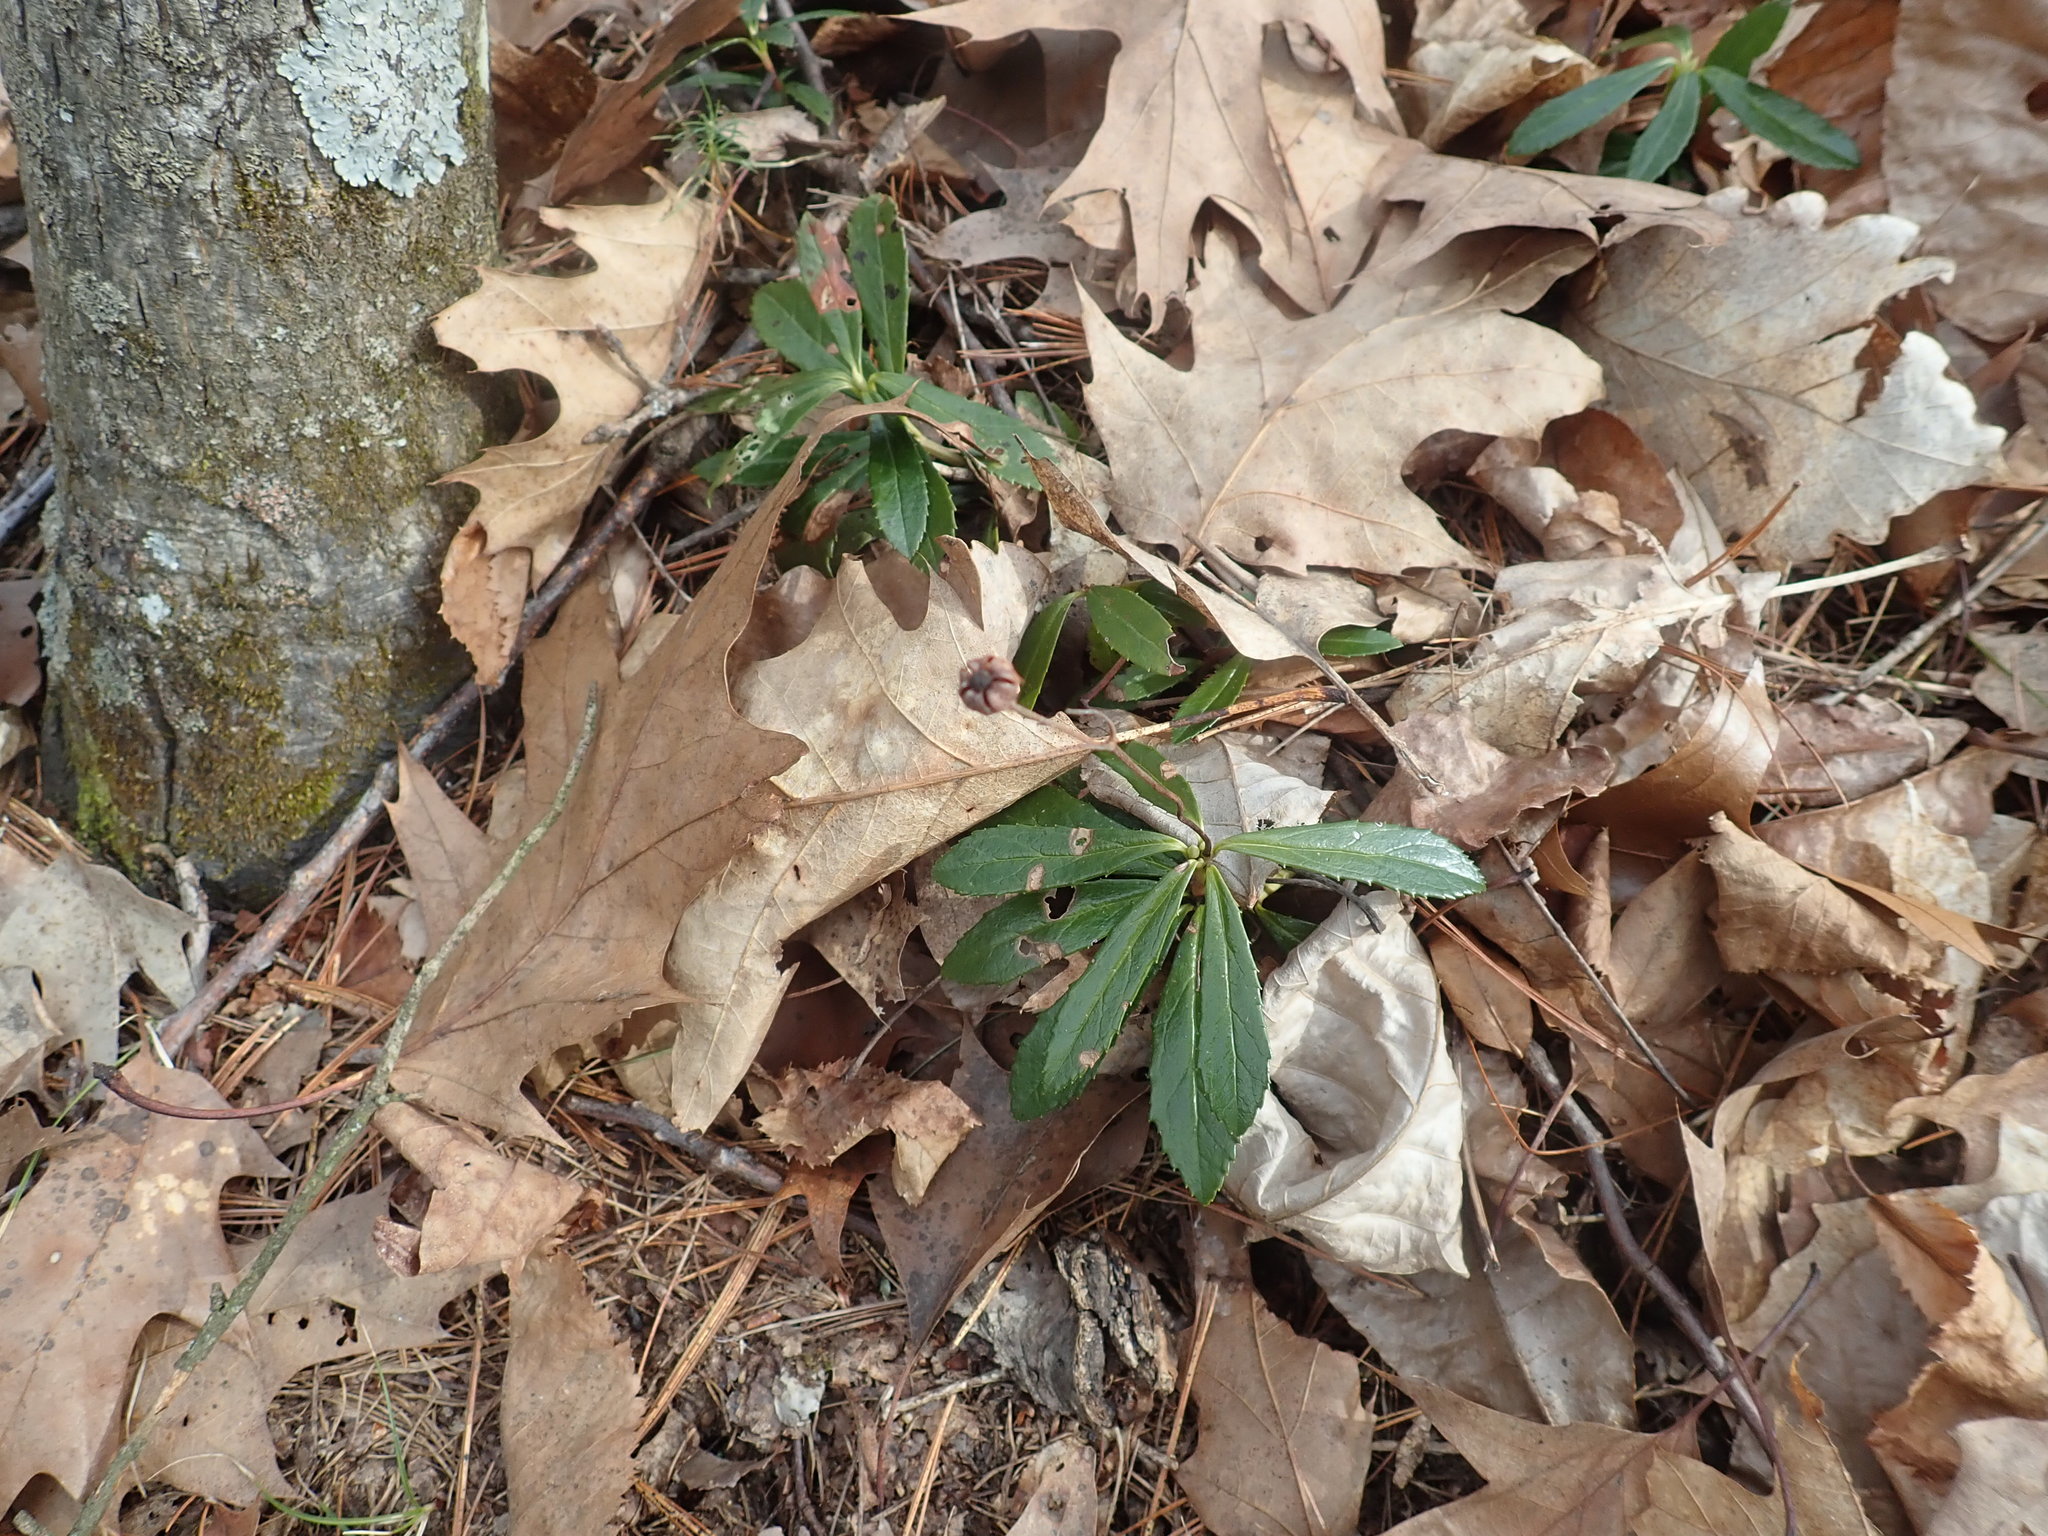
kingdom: Plantae
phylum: Tracheophyta
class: Magnoliopsida
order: Ericales
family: Ericaceae
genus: Chimaphila
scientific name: Chimaphila umbellata
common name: Pipsissewa
